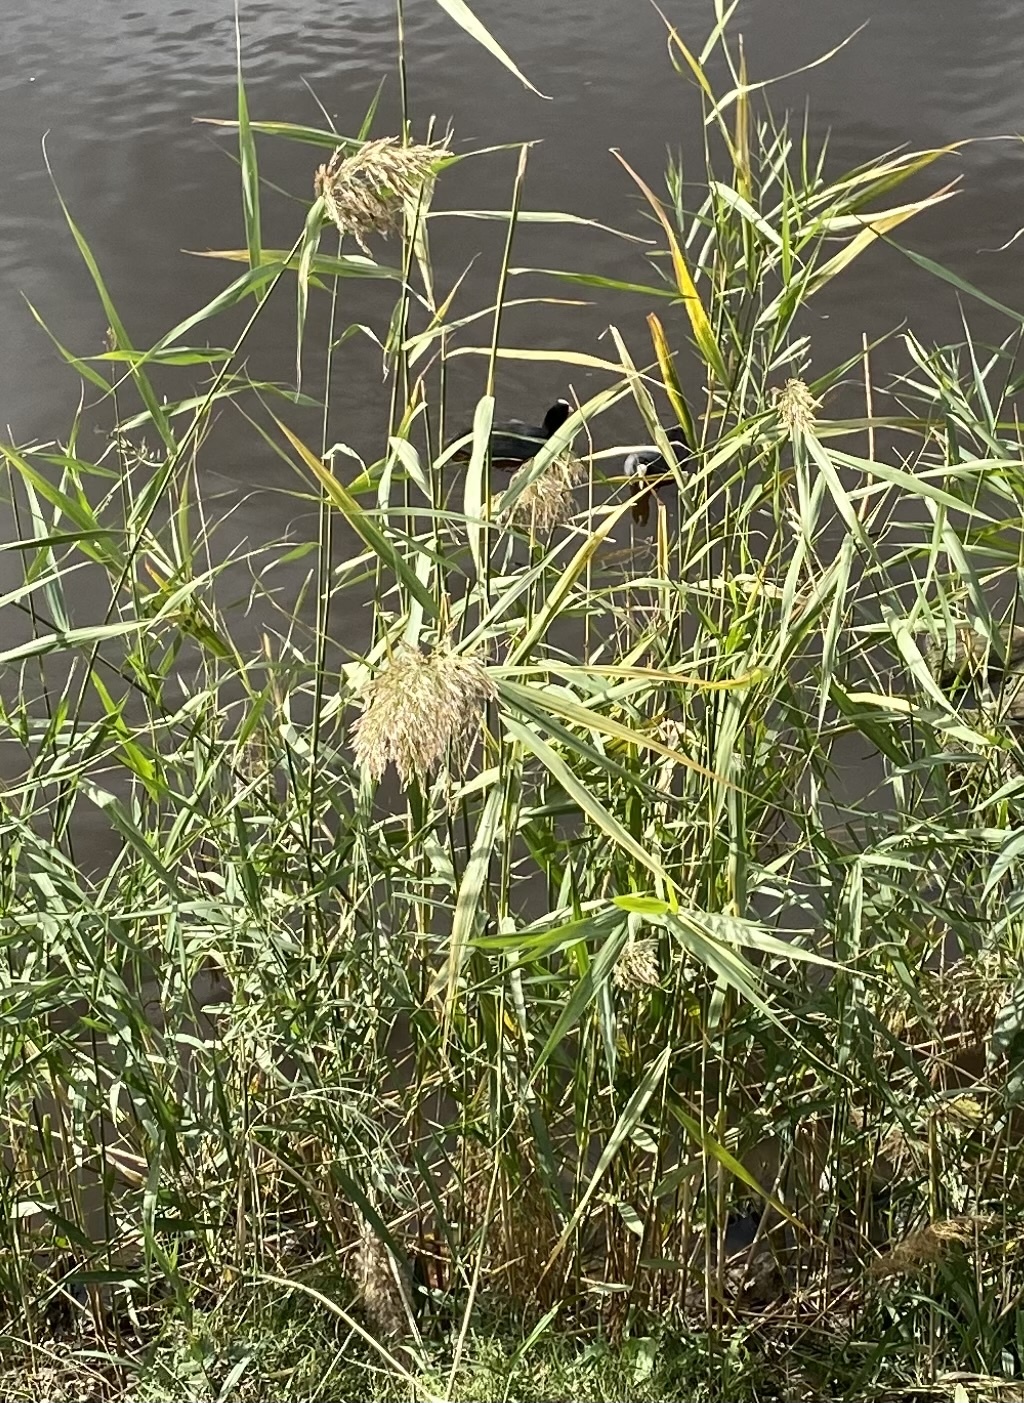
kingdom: Animalia
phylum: Chordata
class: Aves
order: Gruiformes
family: Rallidae
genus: Fulica
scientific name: Fulica atra
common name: Eurasian coot
